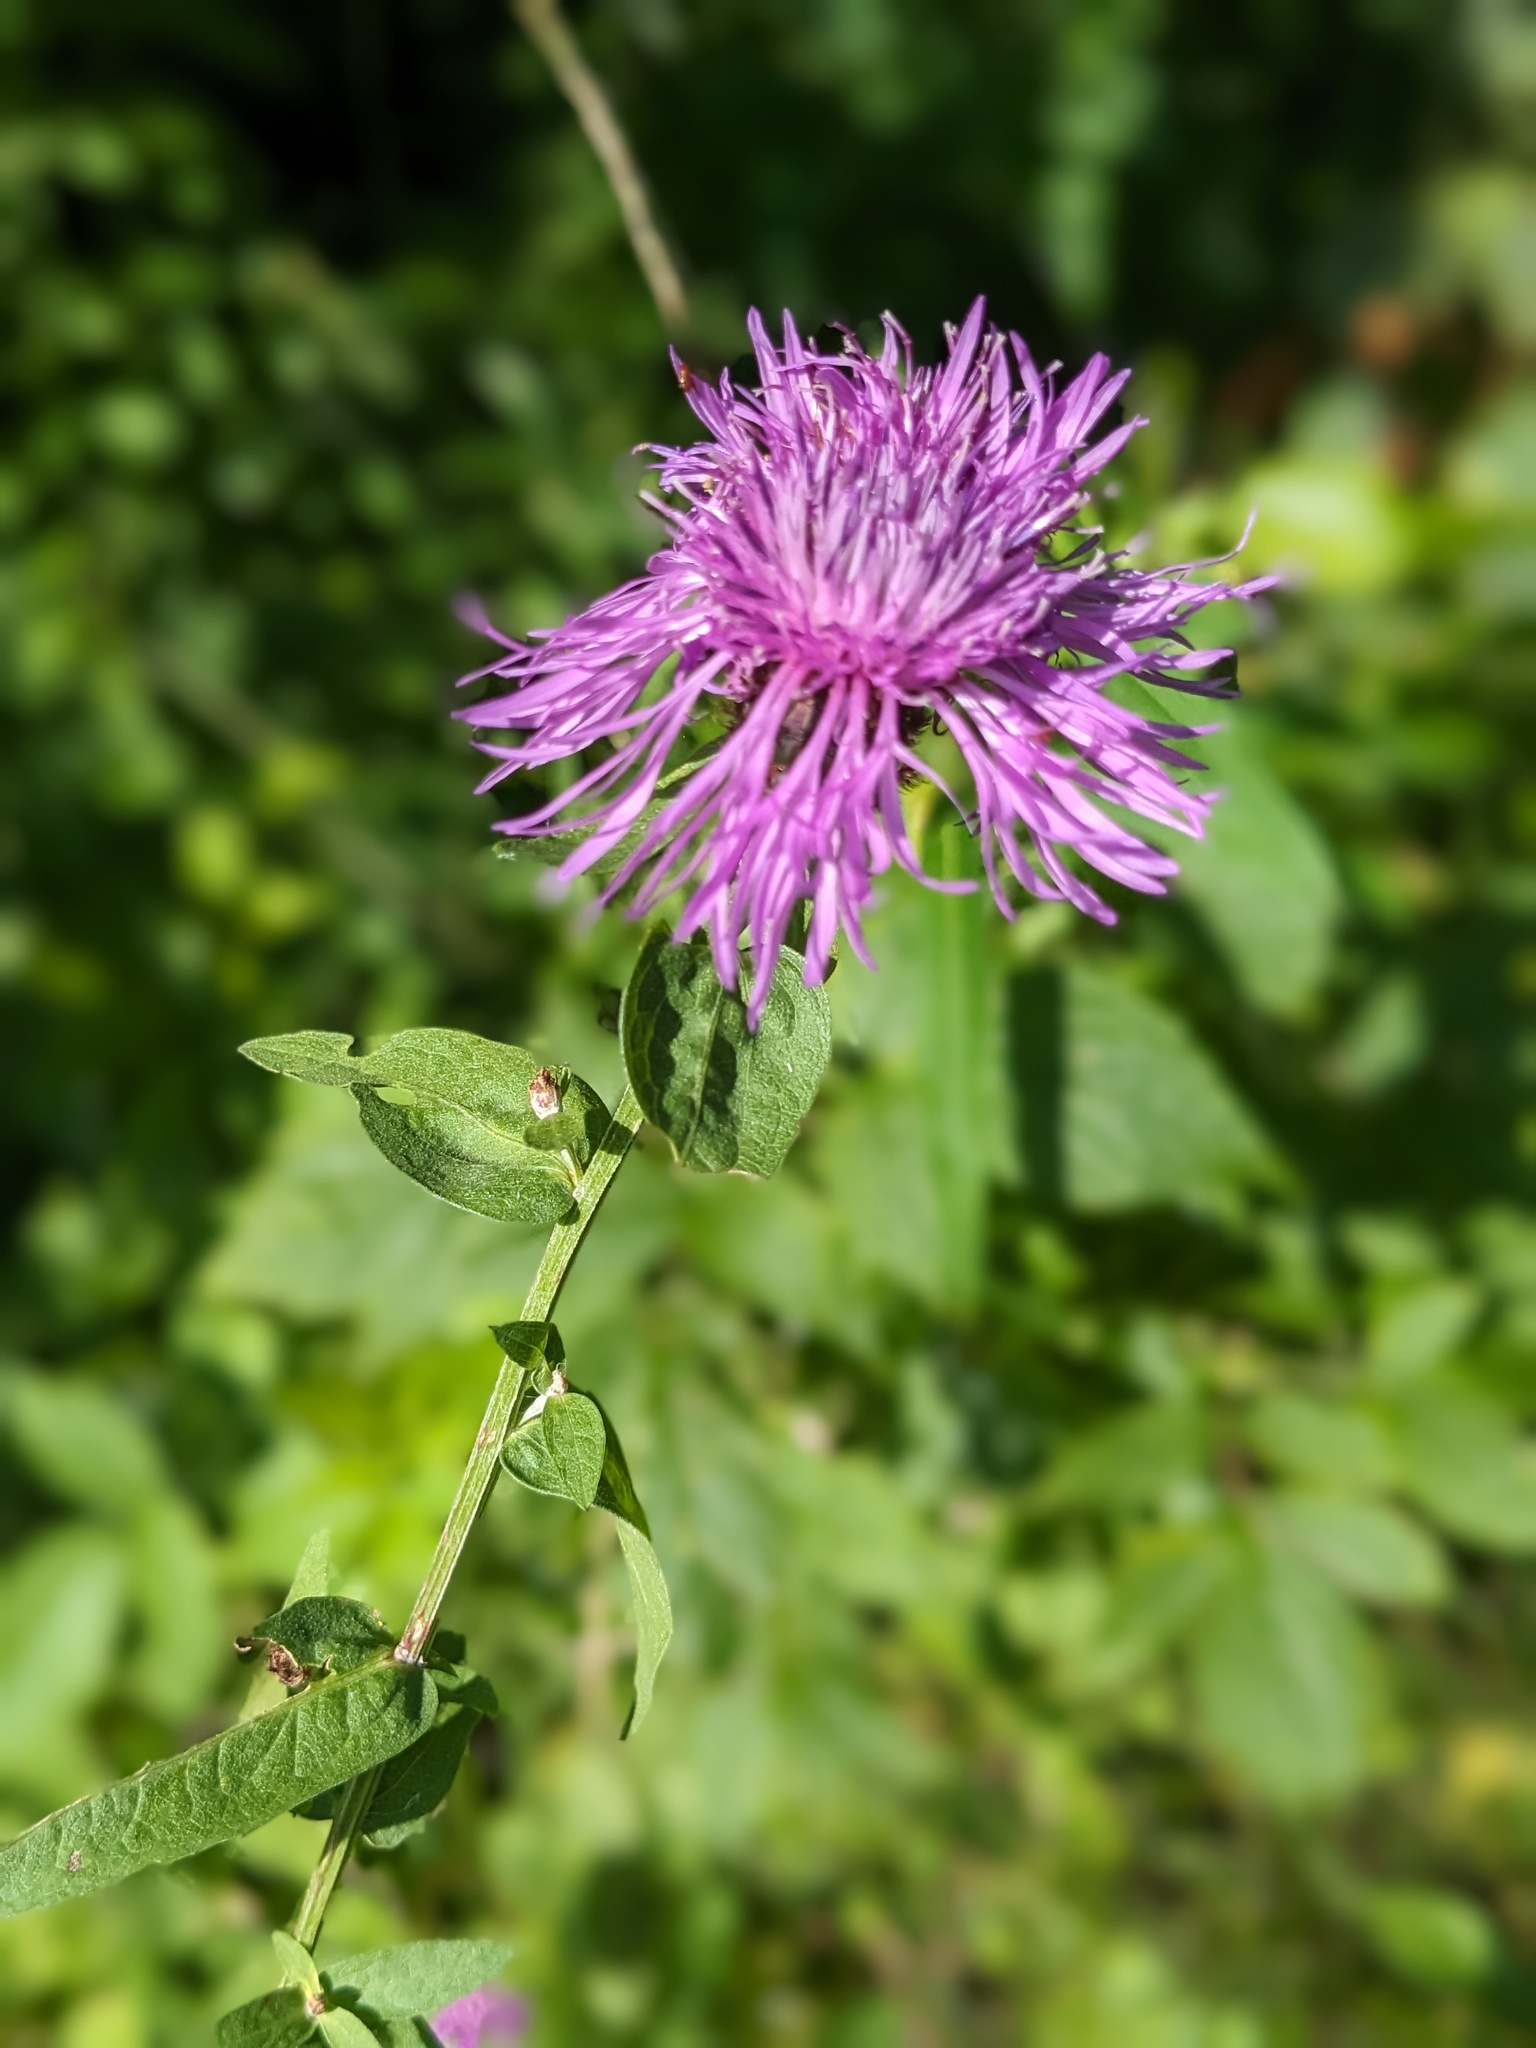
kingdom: Plantae
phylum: Tracheophyta
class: Magnoliopsida
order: Asterales
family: Asteraceae
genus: Centaurea
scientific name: Centaurea nigrescens
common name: Tyrol knapweed
